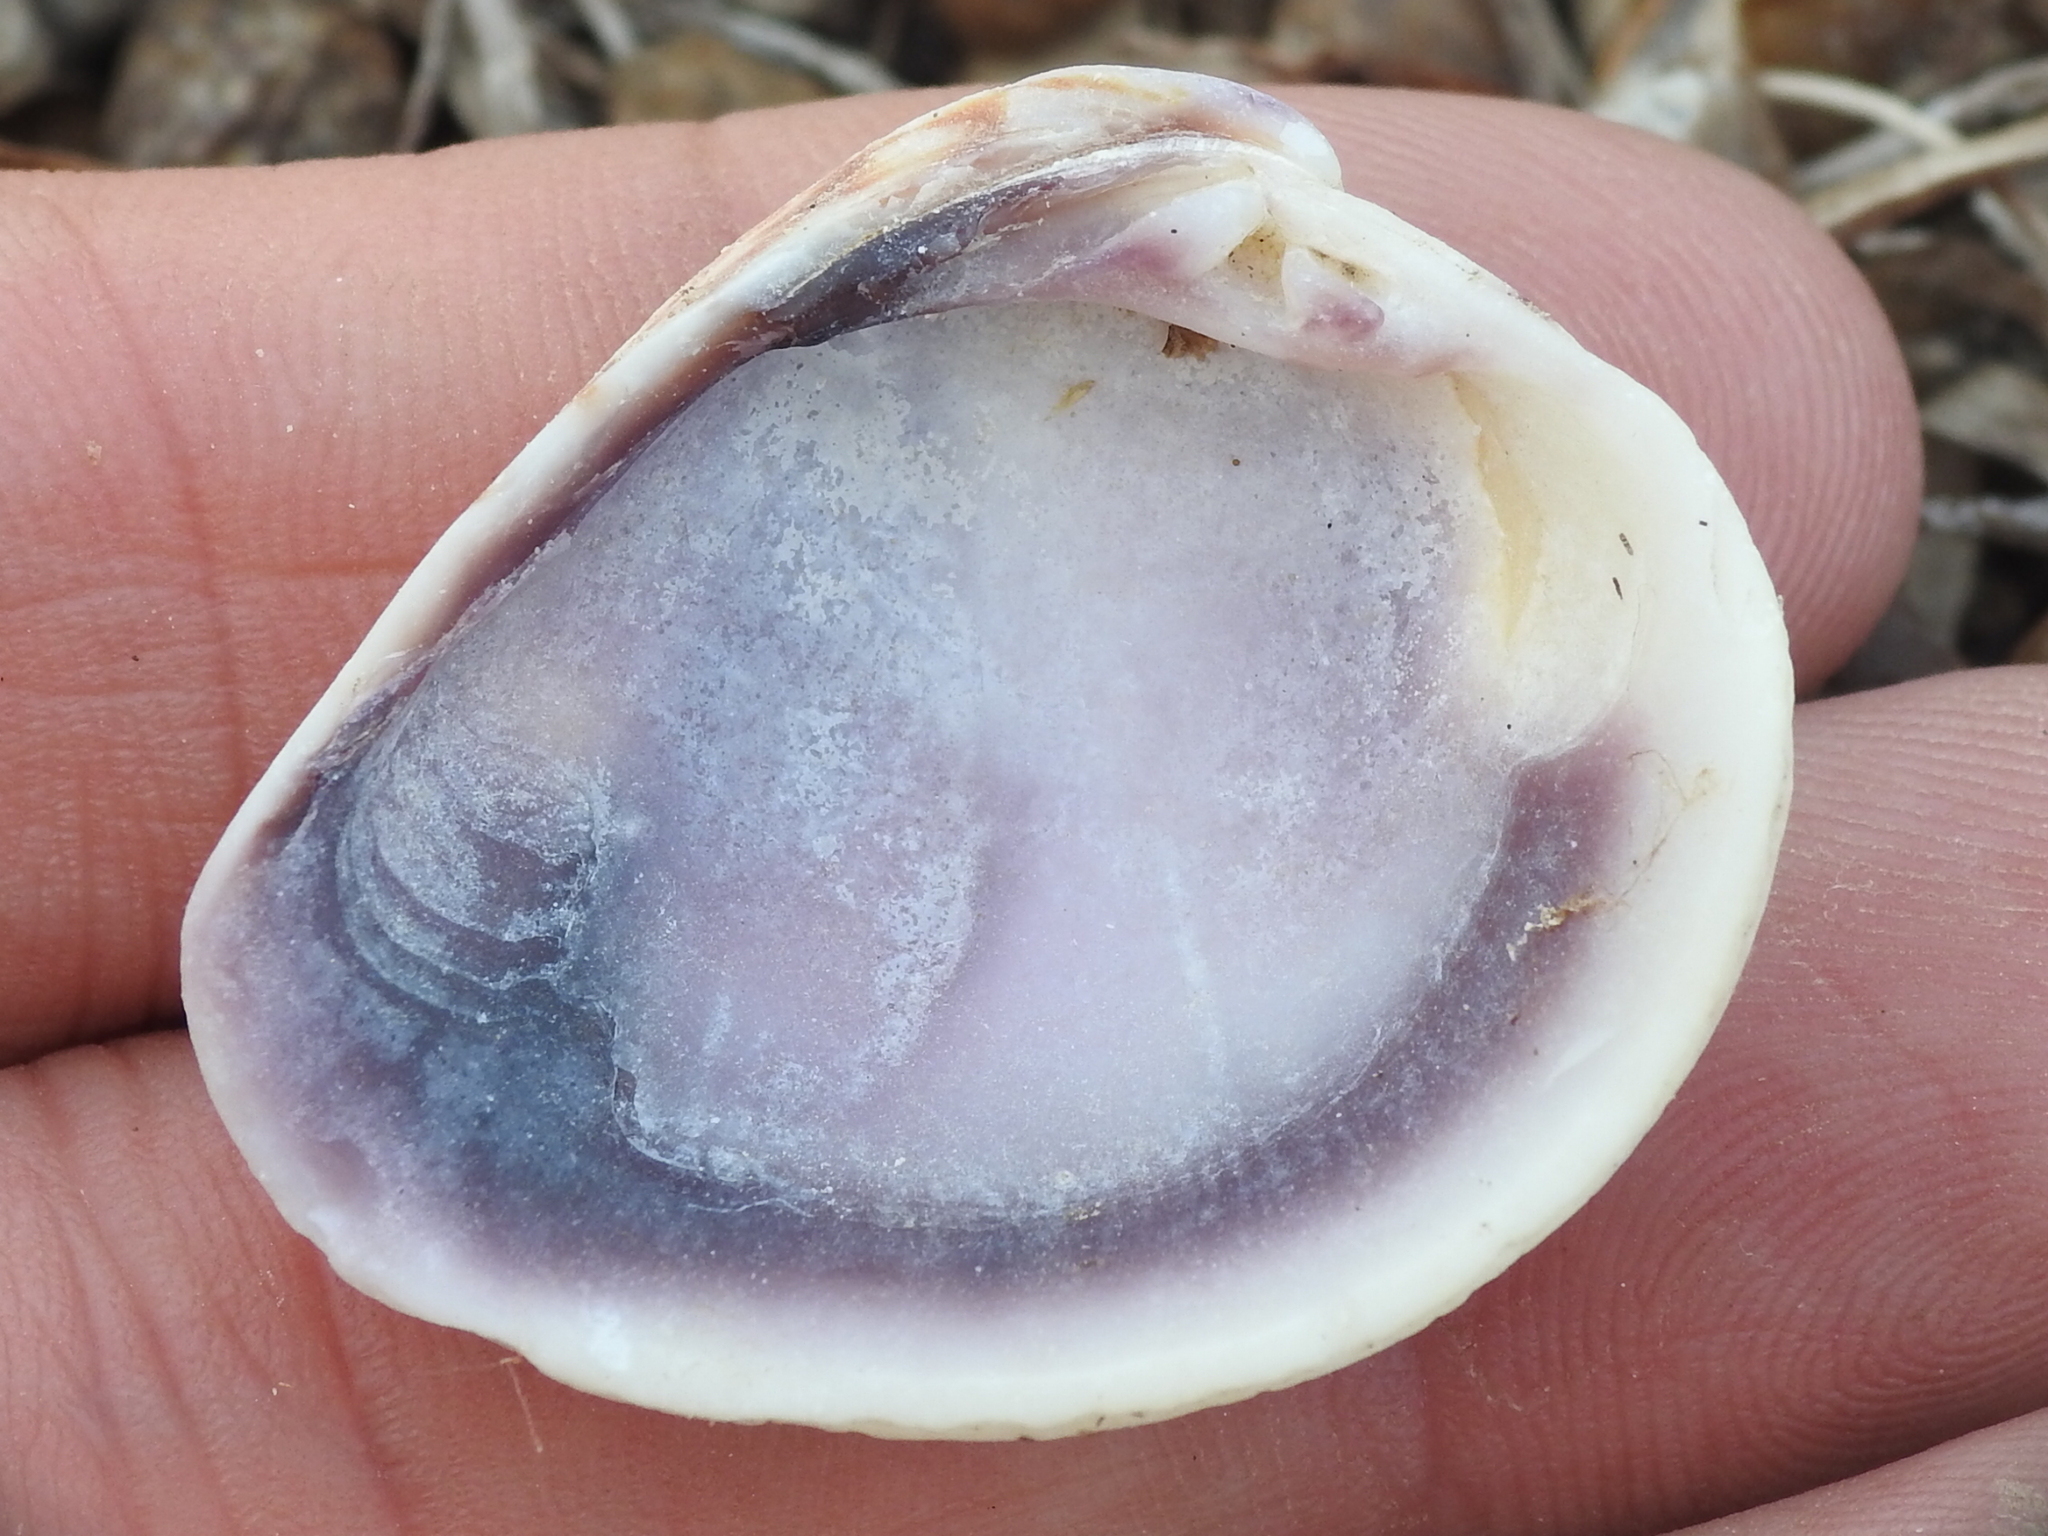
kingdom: Animalia
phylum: Mollusca
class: Bivalvia
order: Venerida
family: Veneridae
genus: Chione
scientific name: Chione elevata
